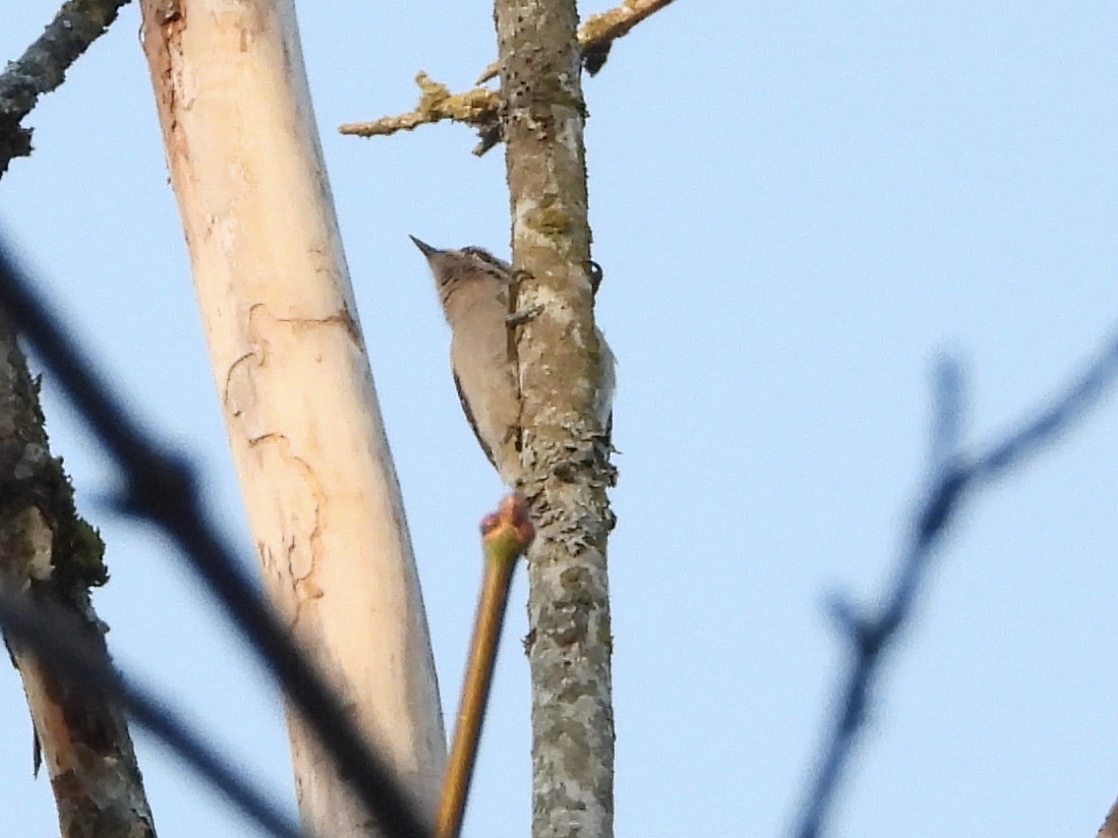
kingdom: Animalia
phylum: Chordata
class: Aves
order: Piciformes
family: Picidae
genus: Dryobates
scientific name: Dryobates pubescens
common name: Downy woodpecker
